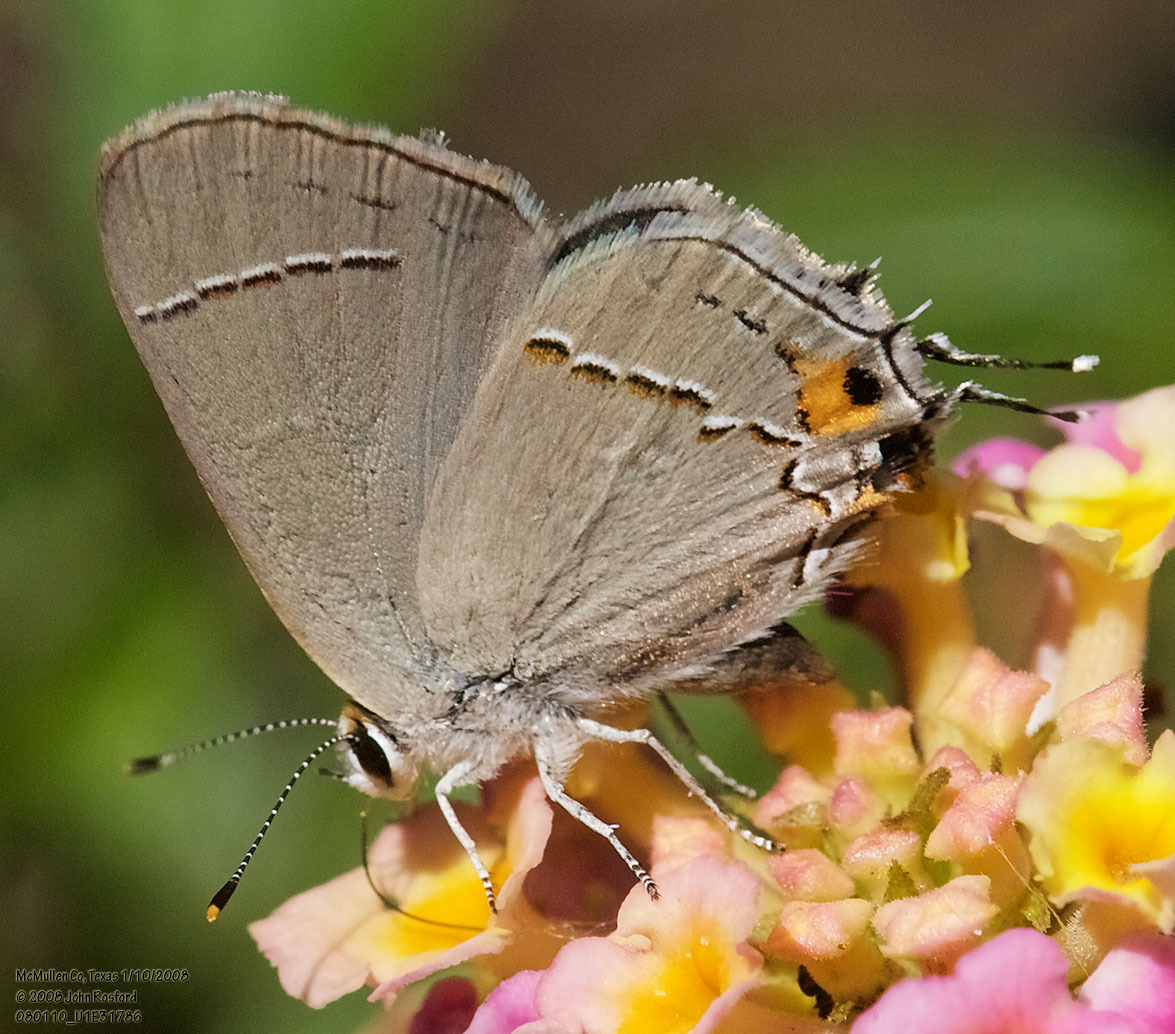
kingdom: Animalia
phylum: Arthropoda
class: Insecta
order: Lepidoptera
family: Lycaenidae
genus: Strymon
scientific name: Strymon melinus
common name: Gray hairstreak
